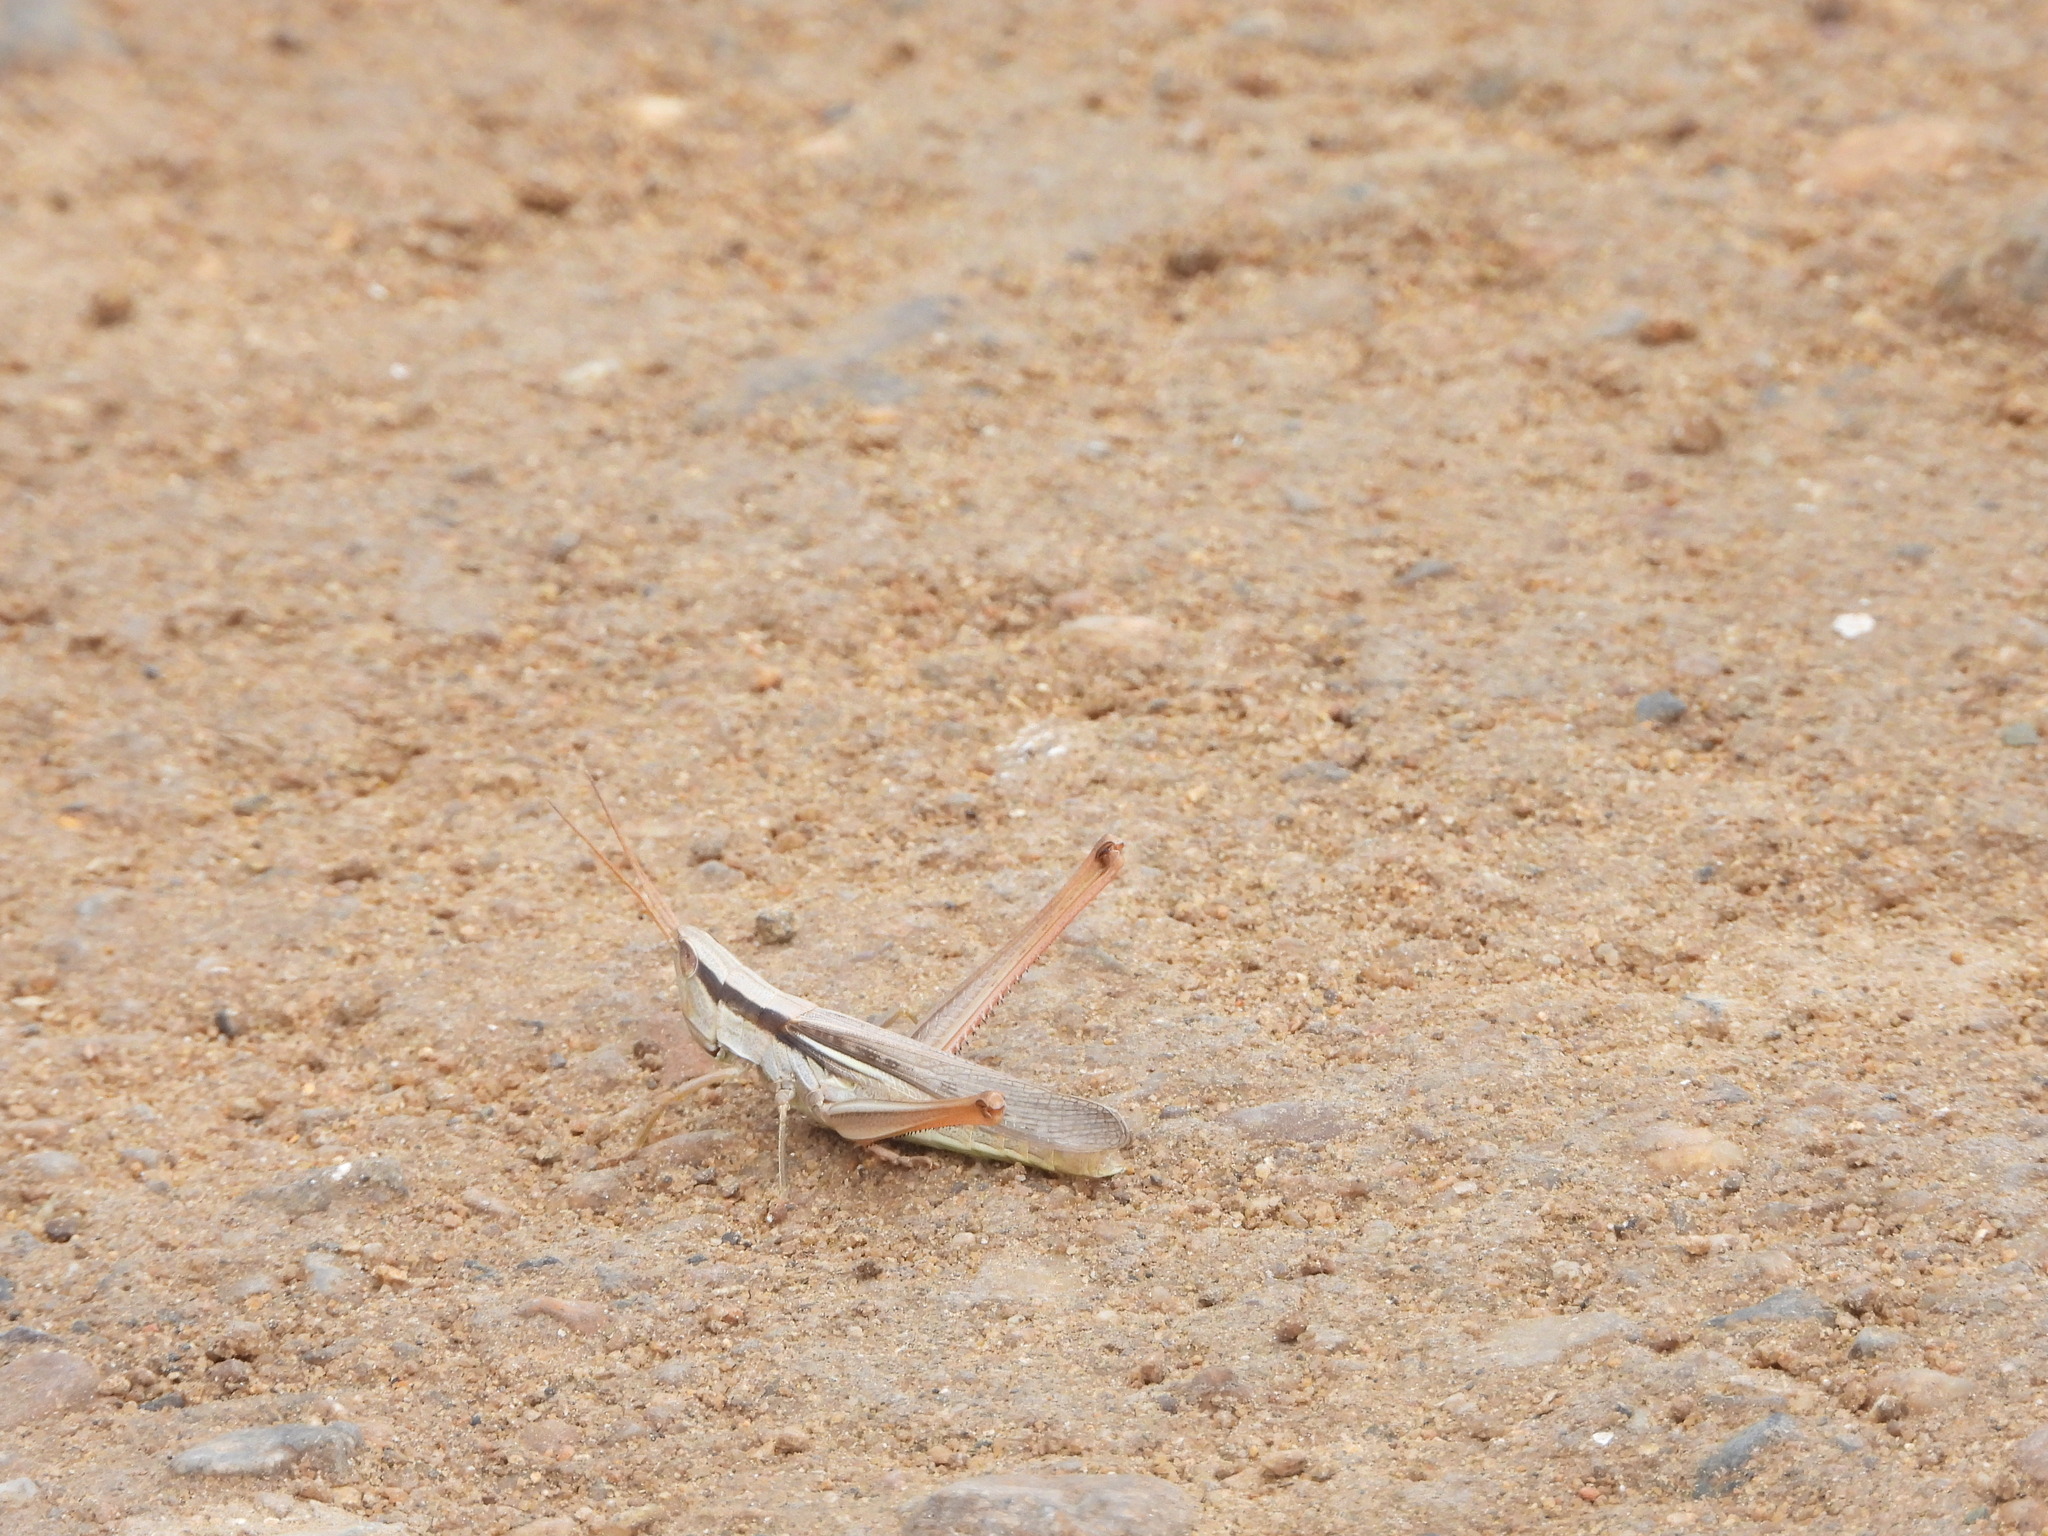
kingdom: Animalia
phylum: Arthropoda
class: Insecta
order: Orthoptera
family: Acrididae
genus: Mermiria
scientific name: Mermiria bivittata
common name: Two-striped mermiria grasshopper
